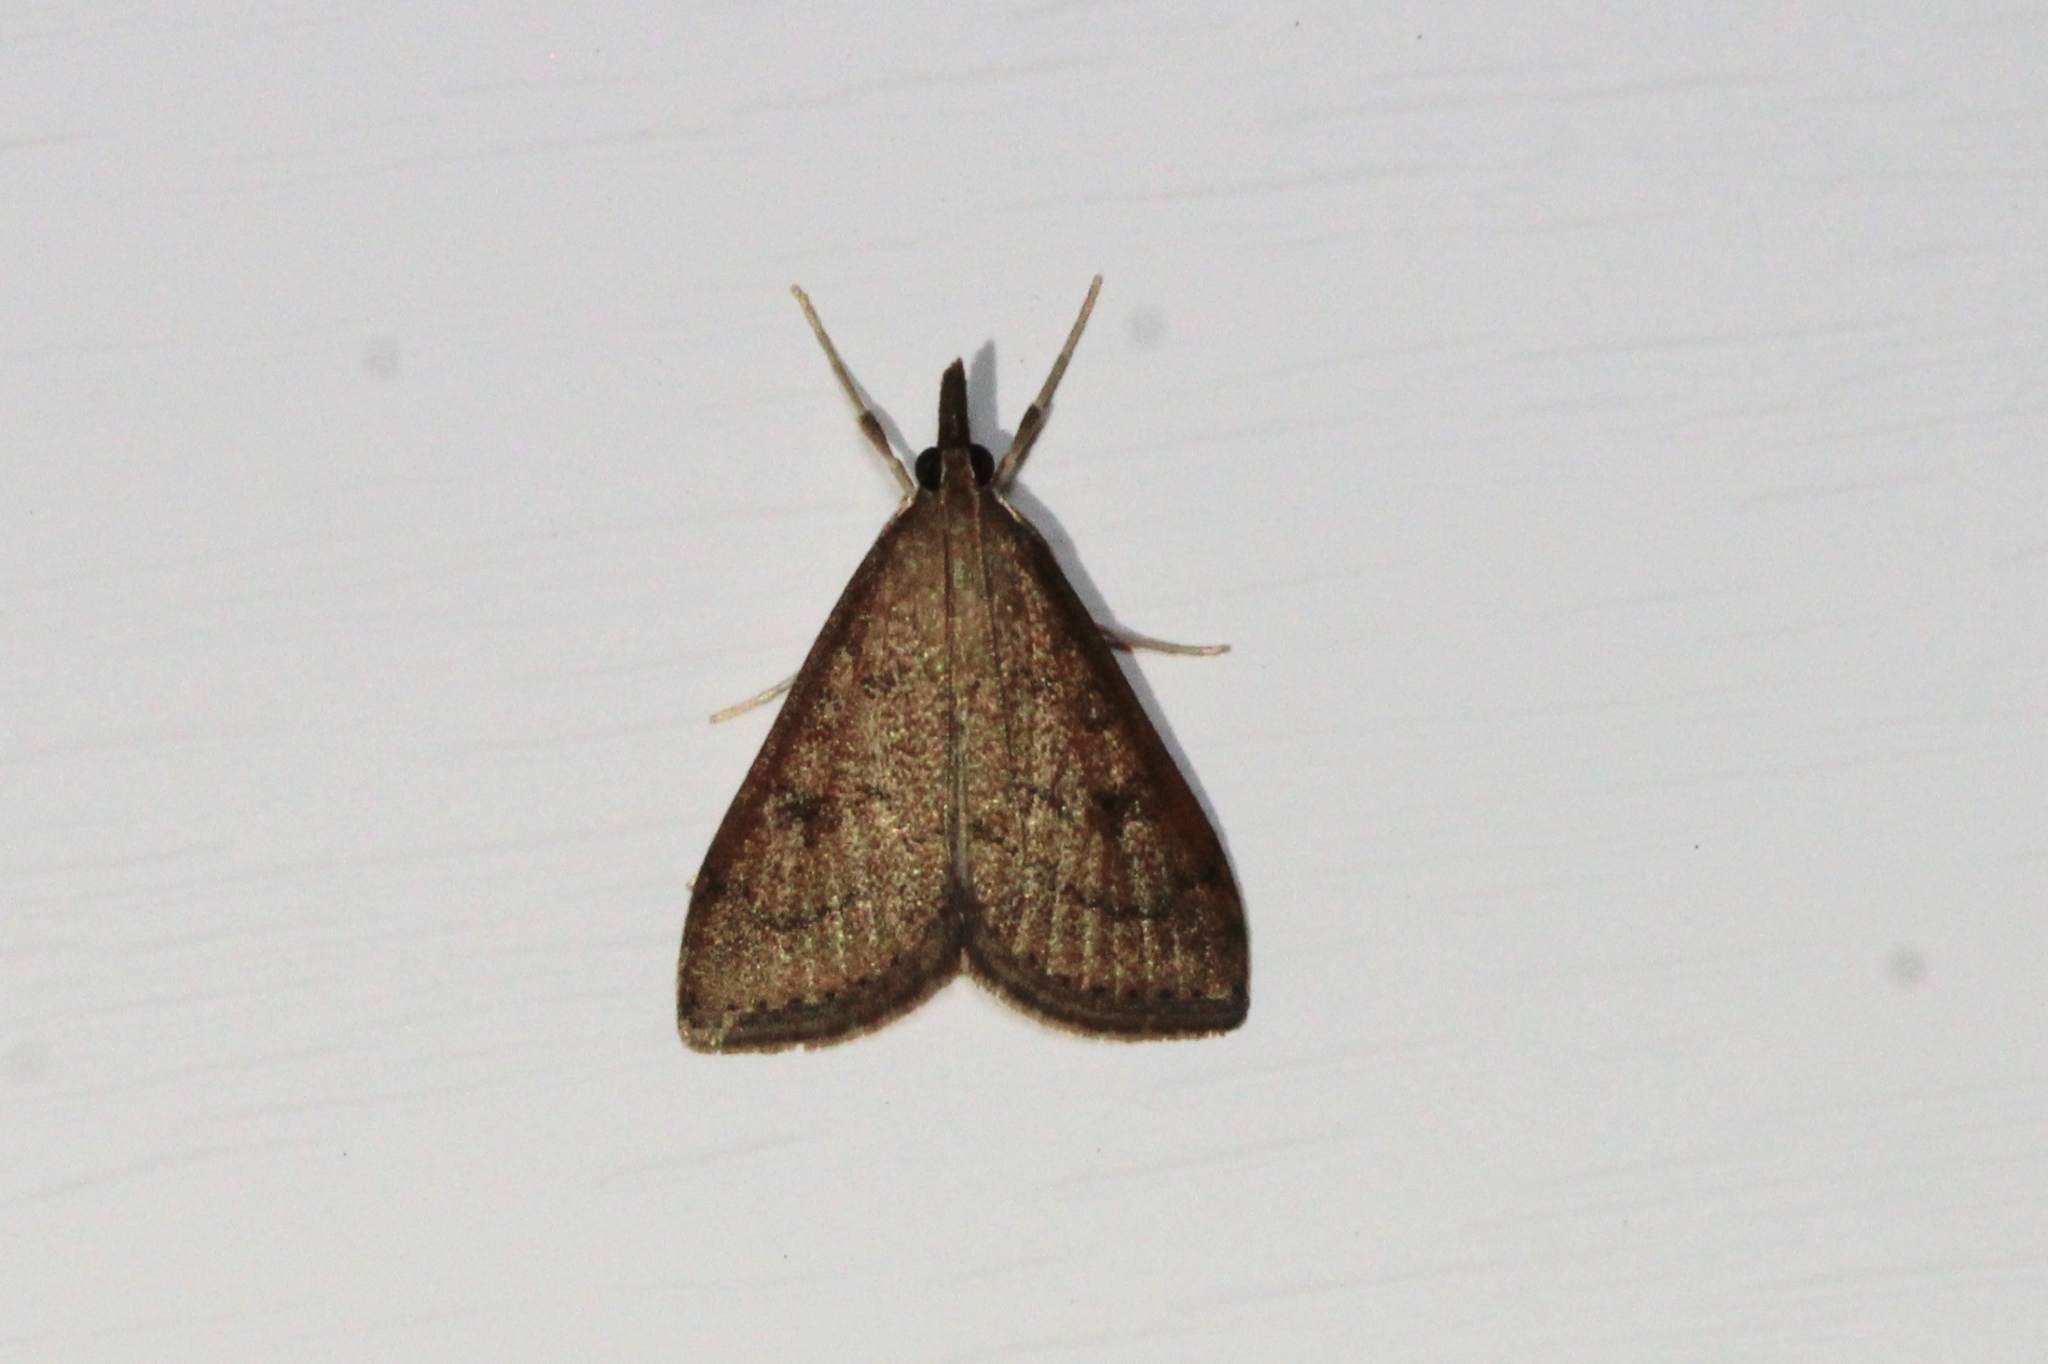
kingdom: Animalia
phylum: Arthropoda
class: Insecta
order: Lepidoptera
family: Crambidae
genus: Udea
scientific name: Udea rubigalis
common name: Celery leaftier moth
